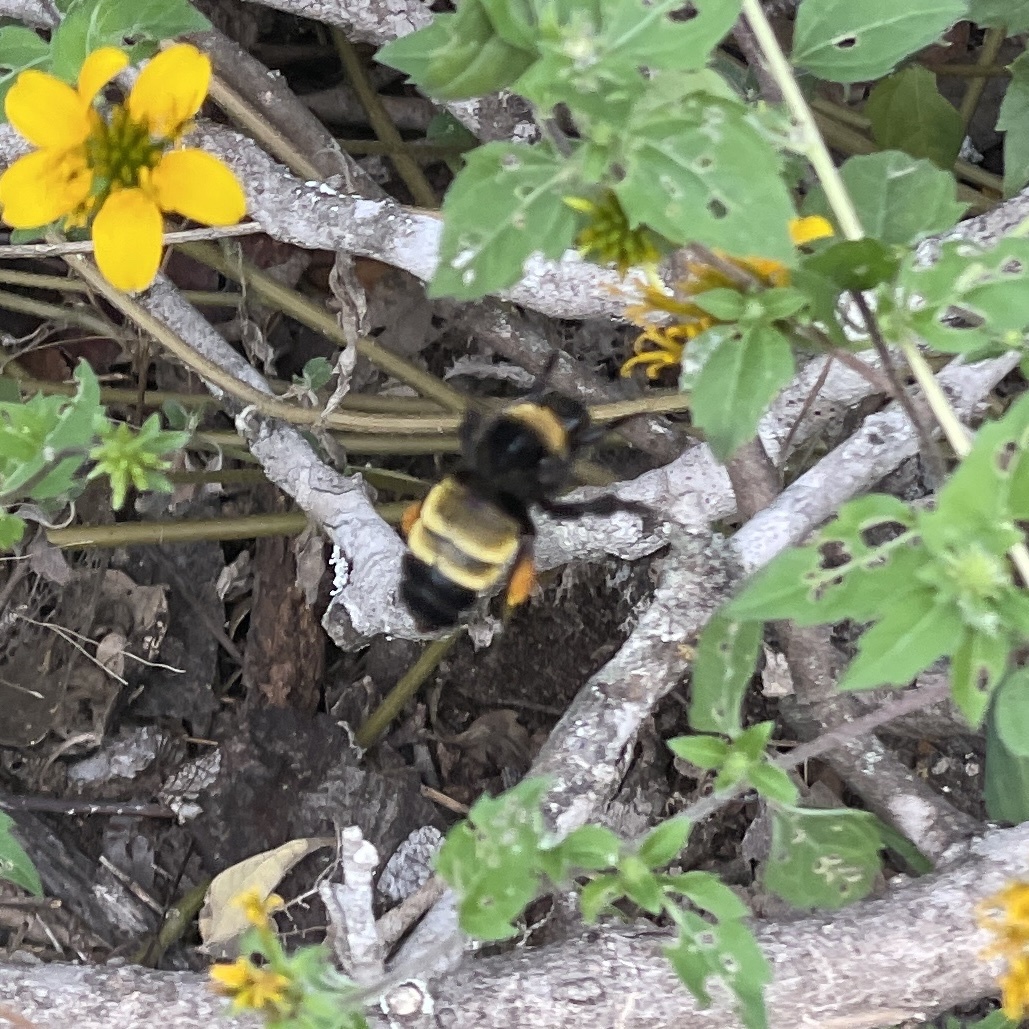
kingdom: Animalia
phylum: Arthropoda
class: Insecta
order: Hymenoptera
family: Apidae
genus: Bombus
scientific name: Bombus pensylvanicus
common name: Bumble bee
